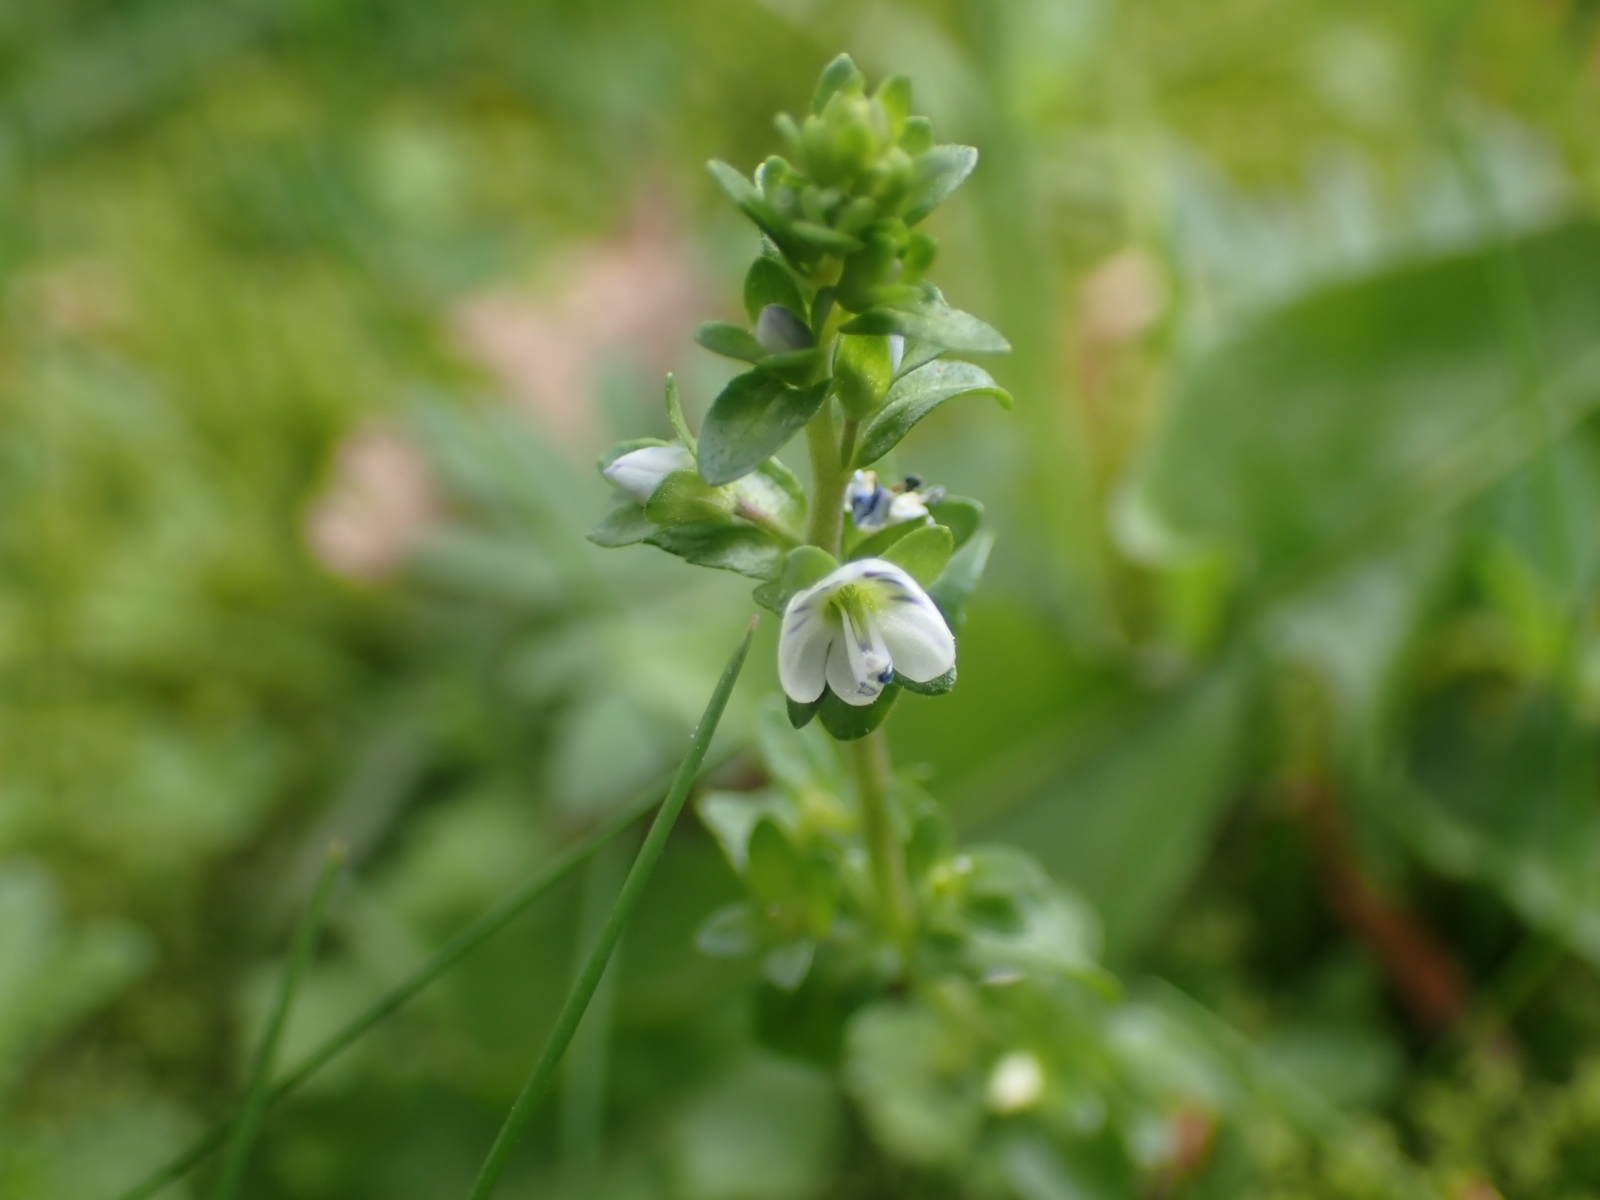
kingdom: Plantae
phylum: Tracheophyta
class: Magnoliopsida
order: Lamiales
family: Plantaginaceae
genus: Veronica
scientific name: Veronica serpyllifolia
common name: Thyme-leaved speedwell
